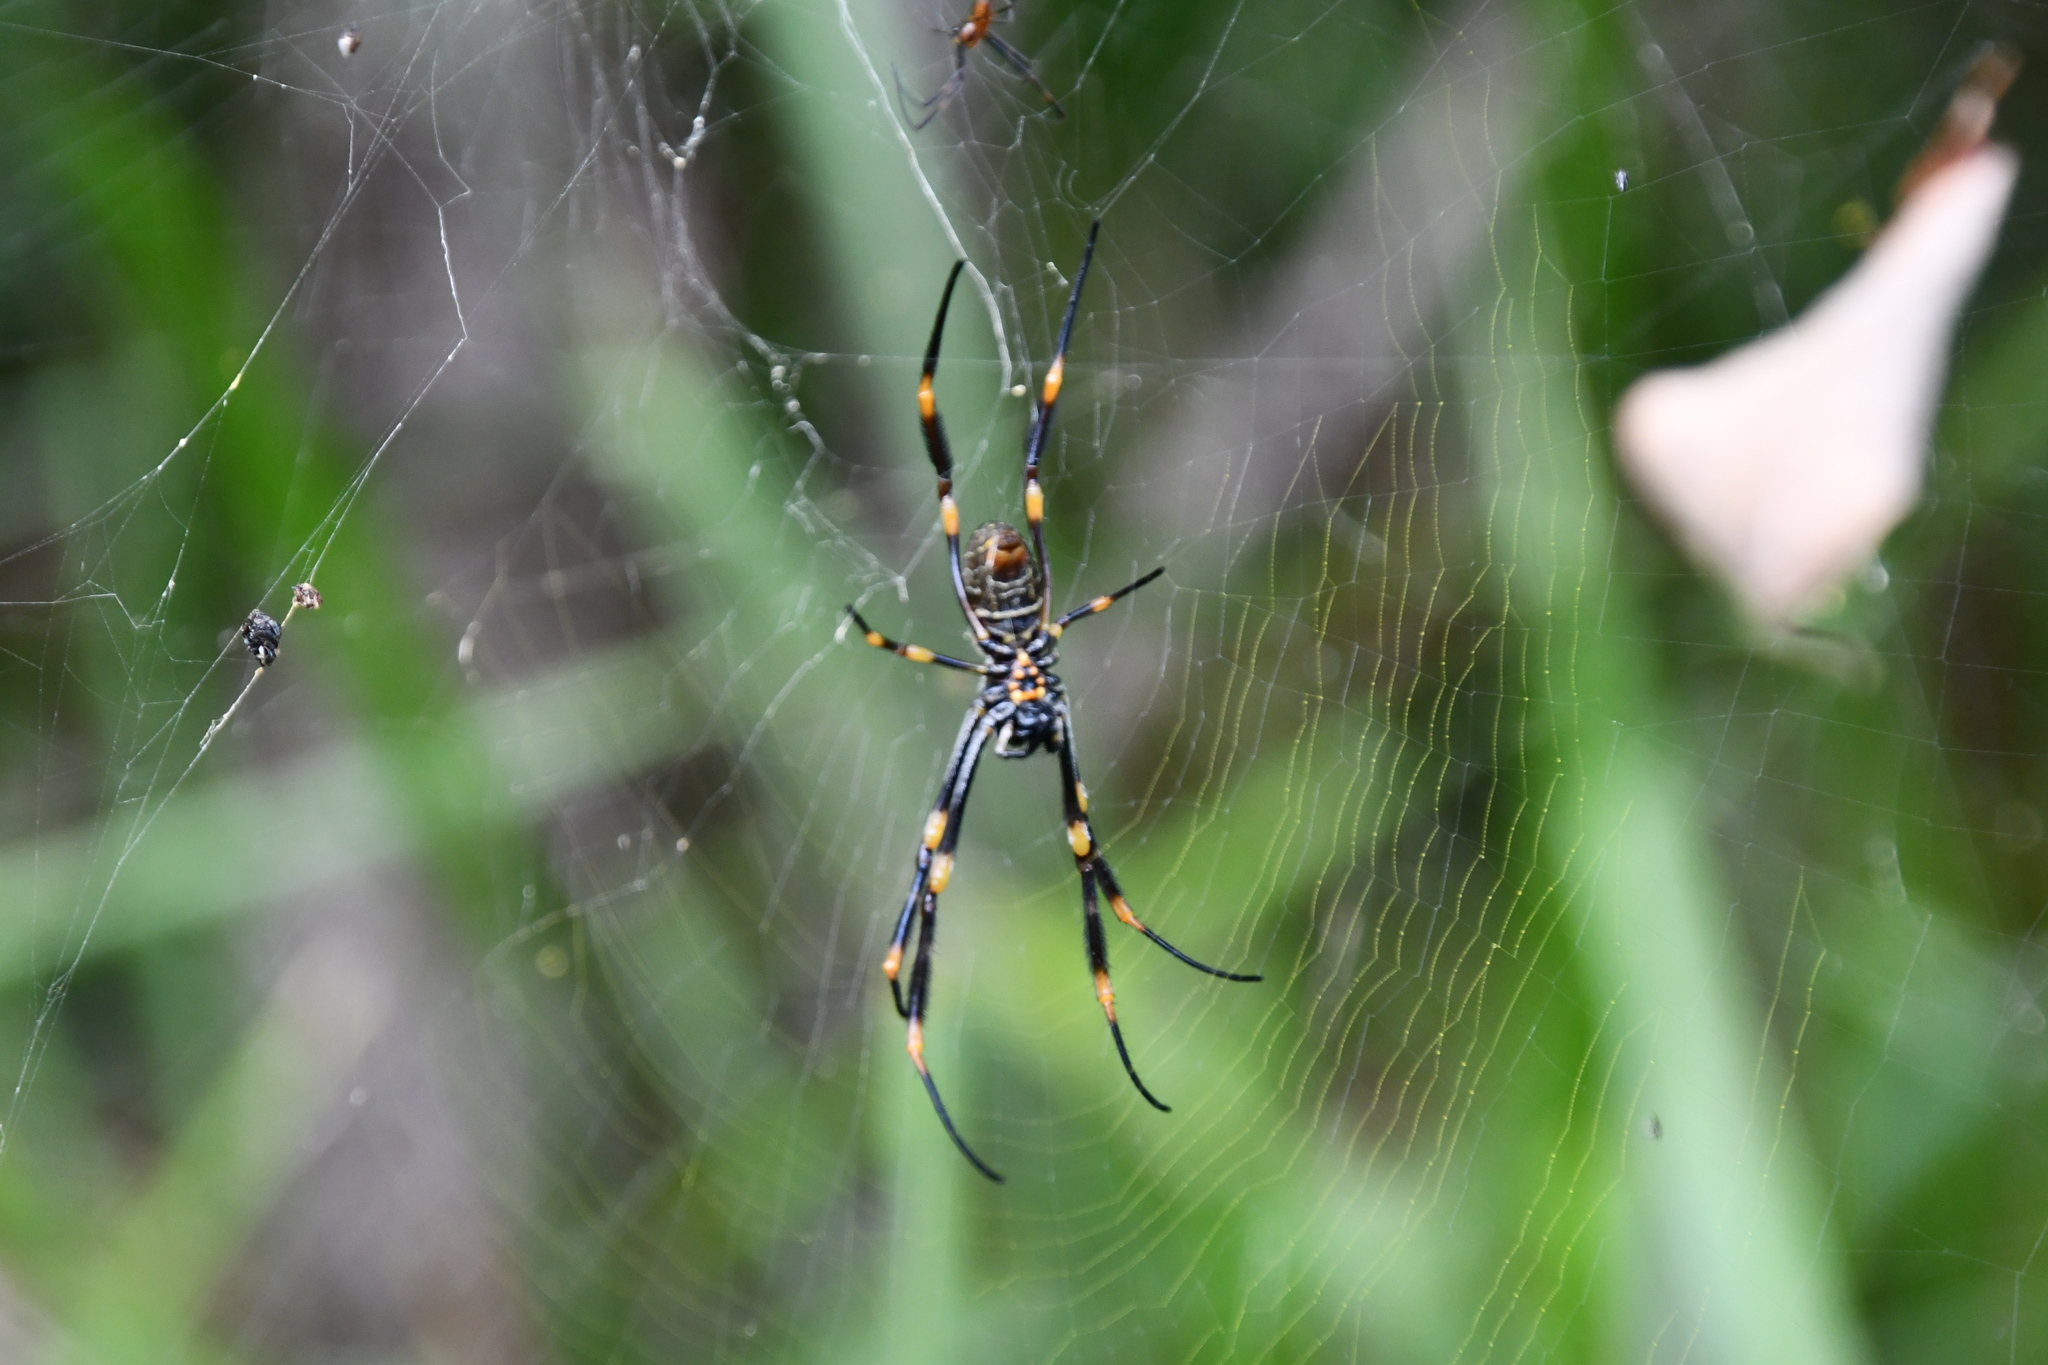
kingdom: Animalia
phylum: Arthropoda
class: Arachnida
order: Araneae
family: Araneidae
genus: Trichonephila
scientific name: Trichonephila plumipes
